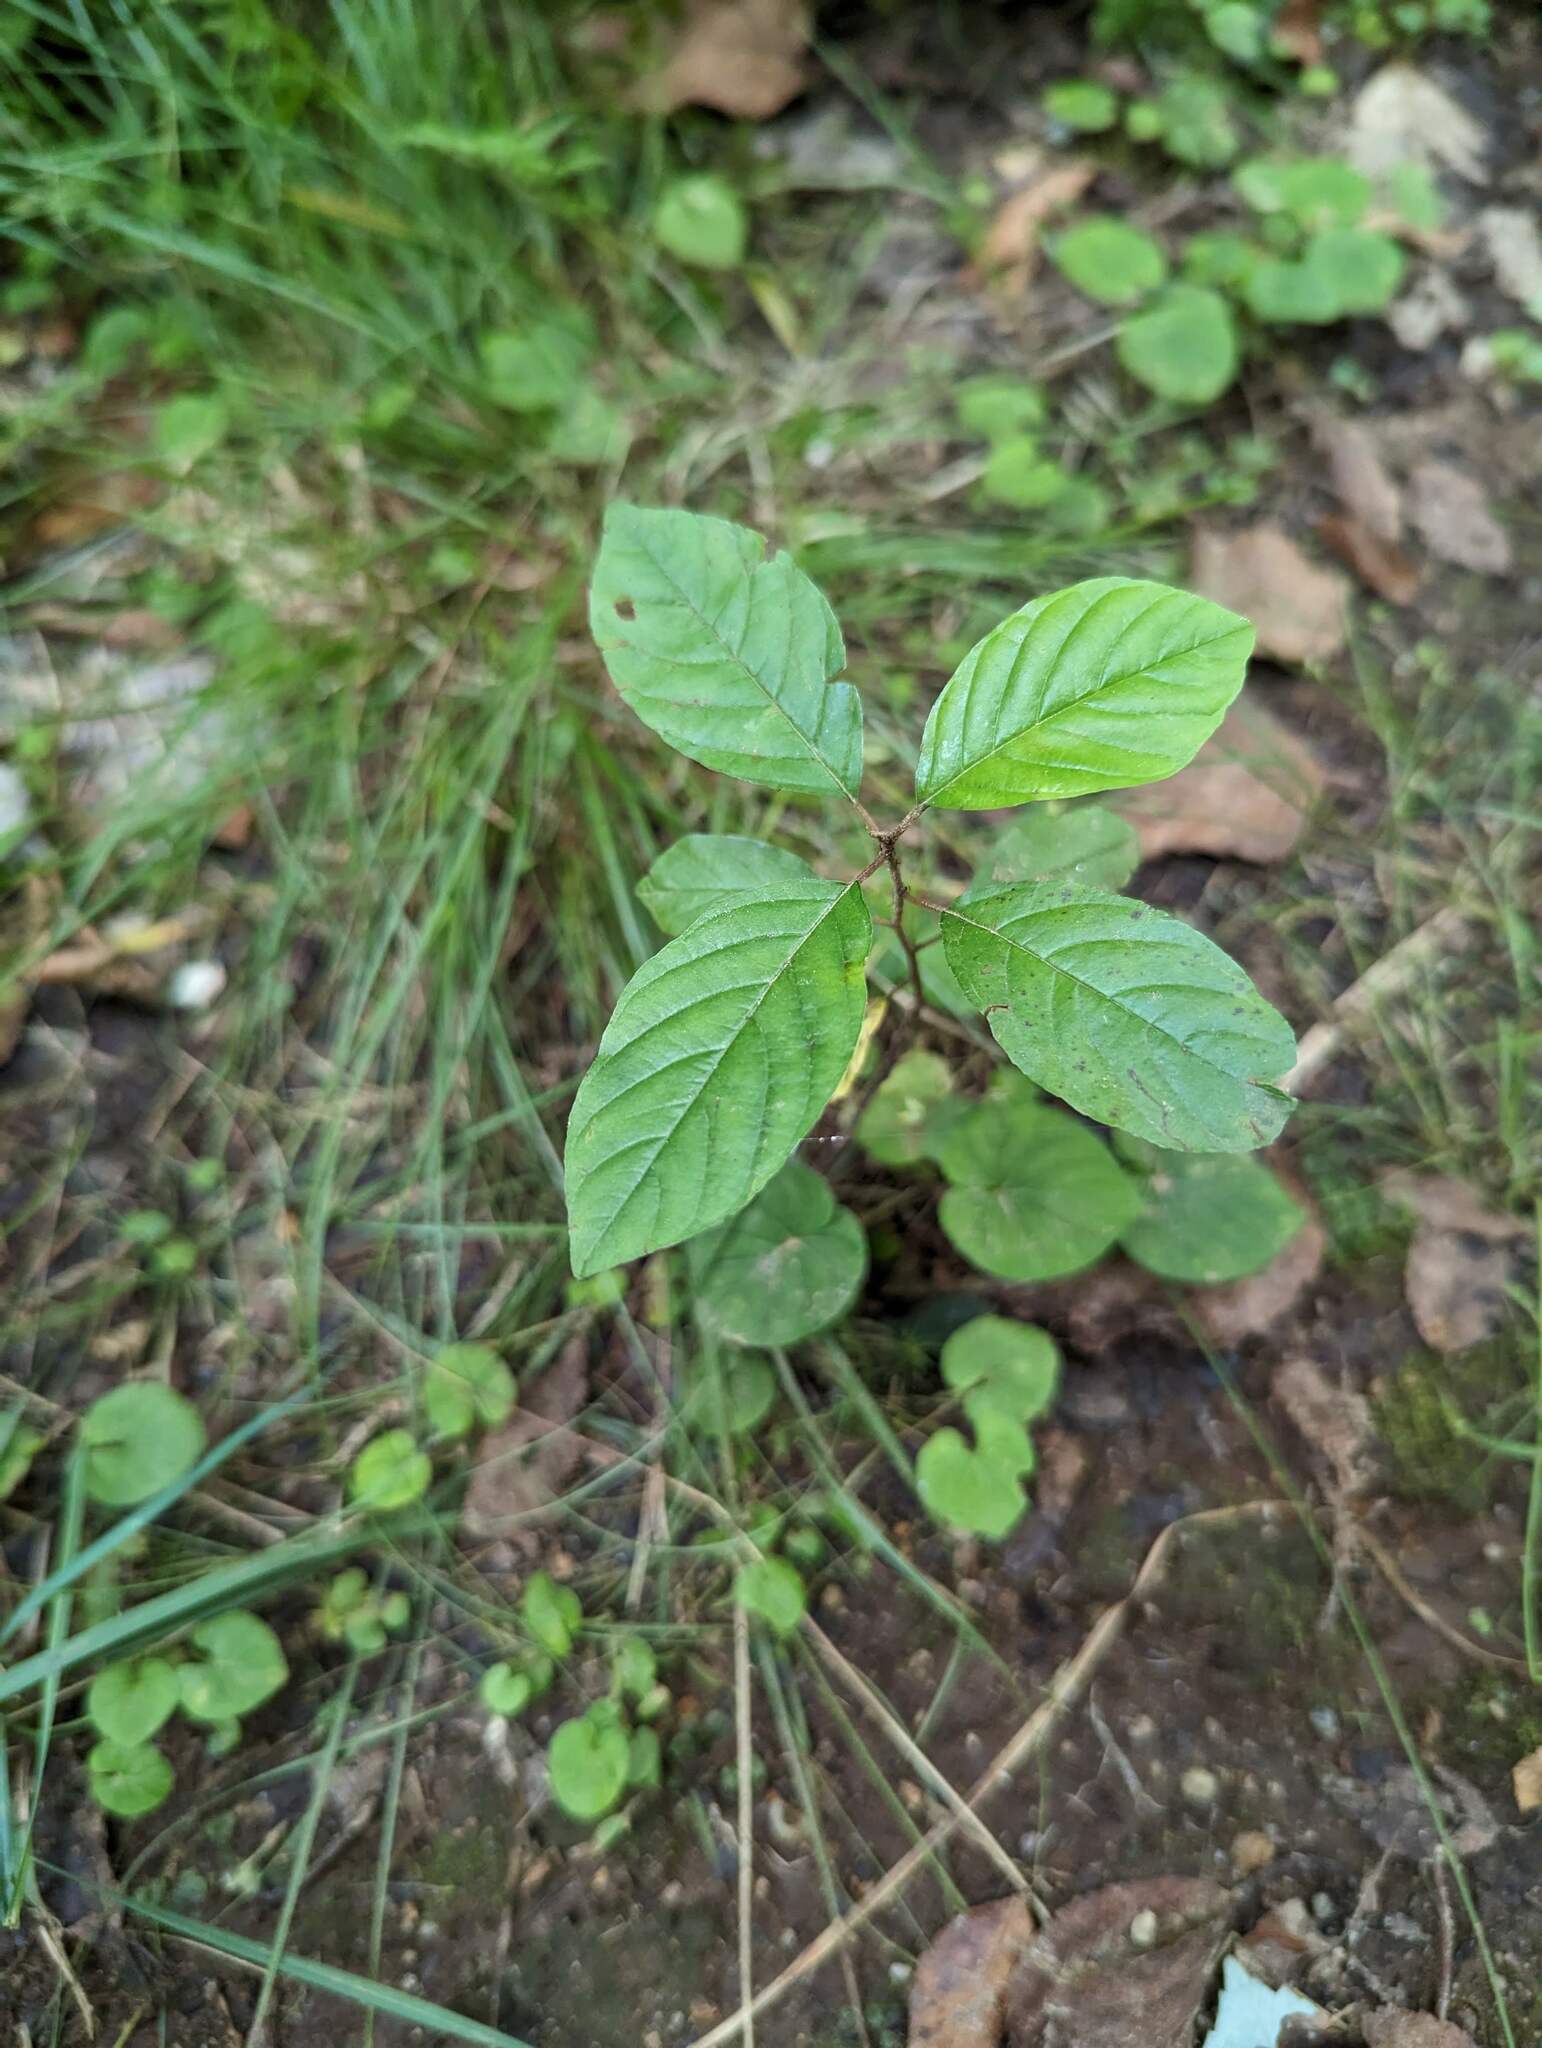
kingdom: Plantae
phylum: Tracheophyta
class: Magnoliopsida
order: Rosales
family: Rhamnaceae
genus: Frangula
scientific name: Frangula alnus
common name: Alder buckthorn
